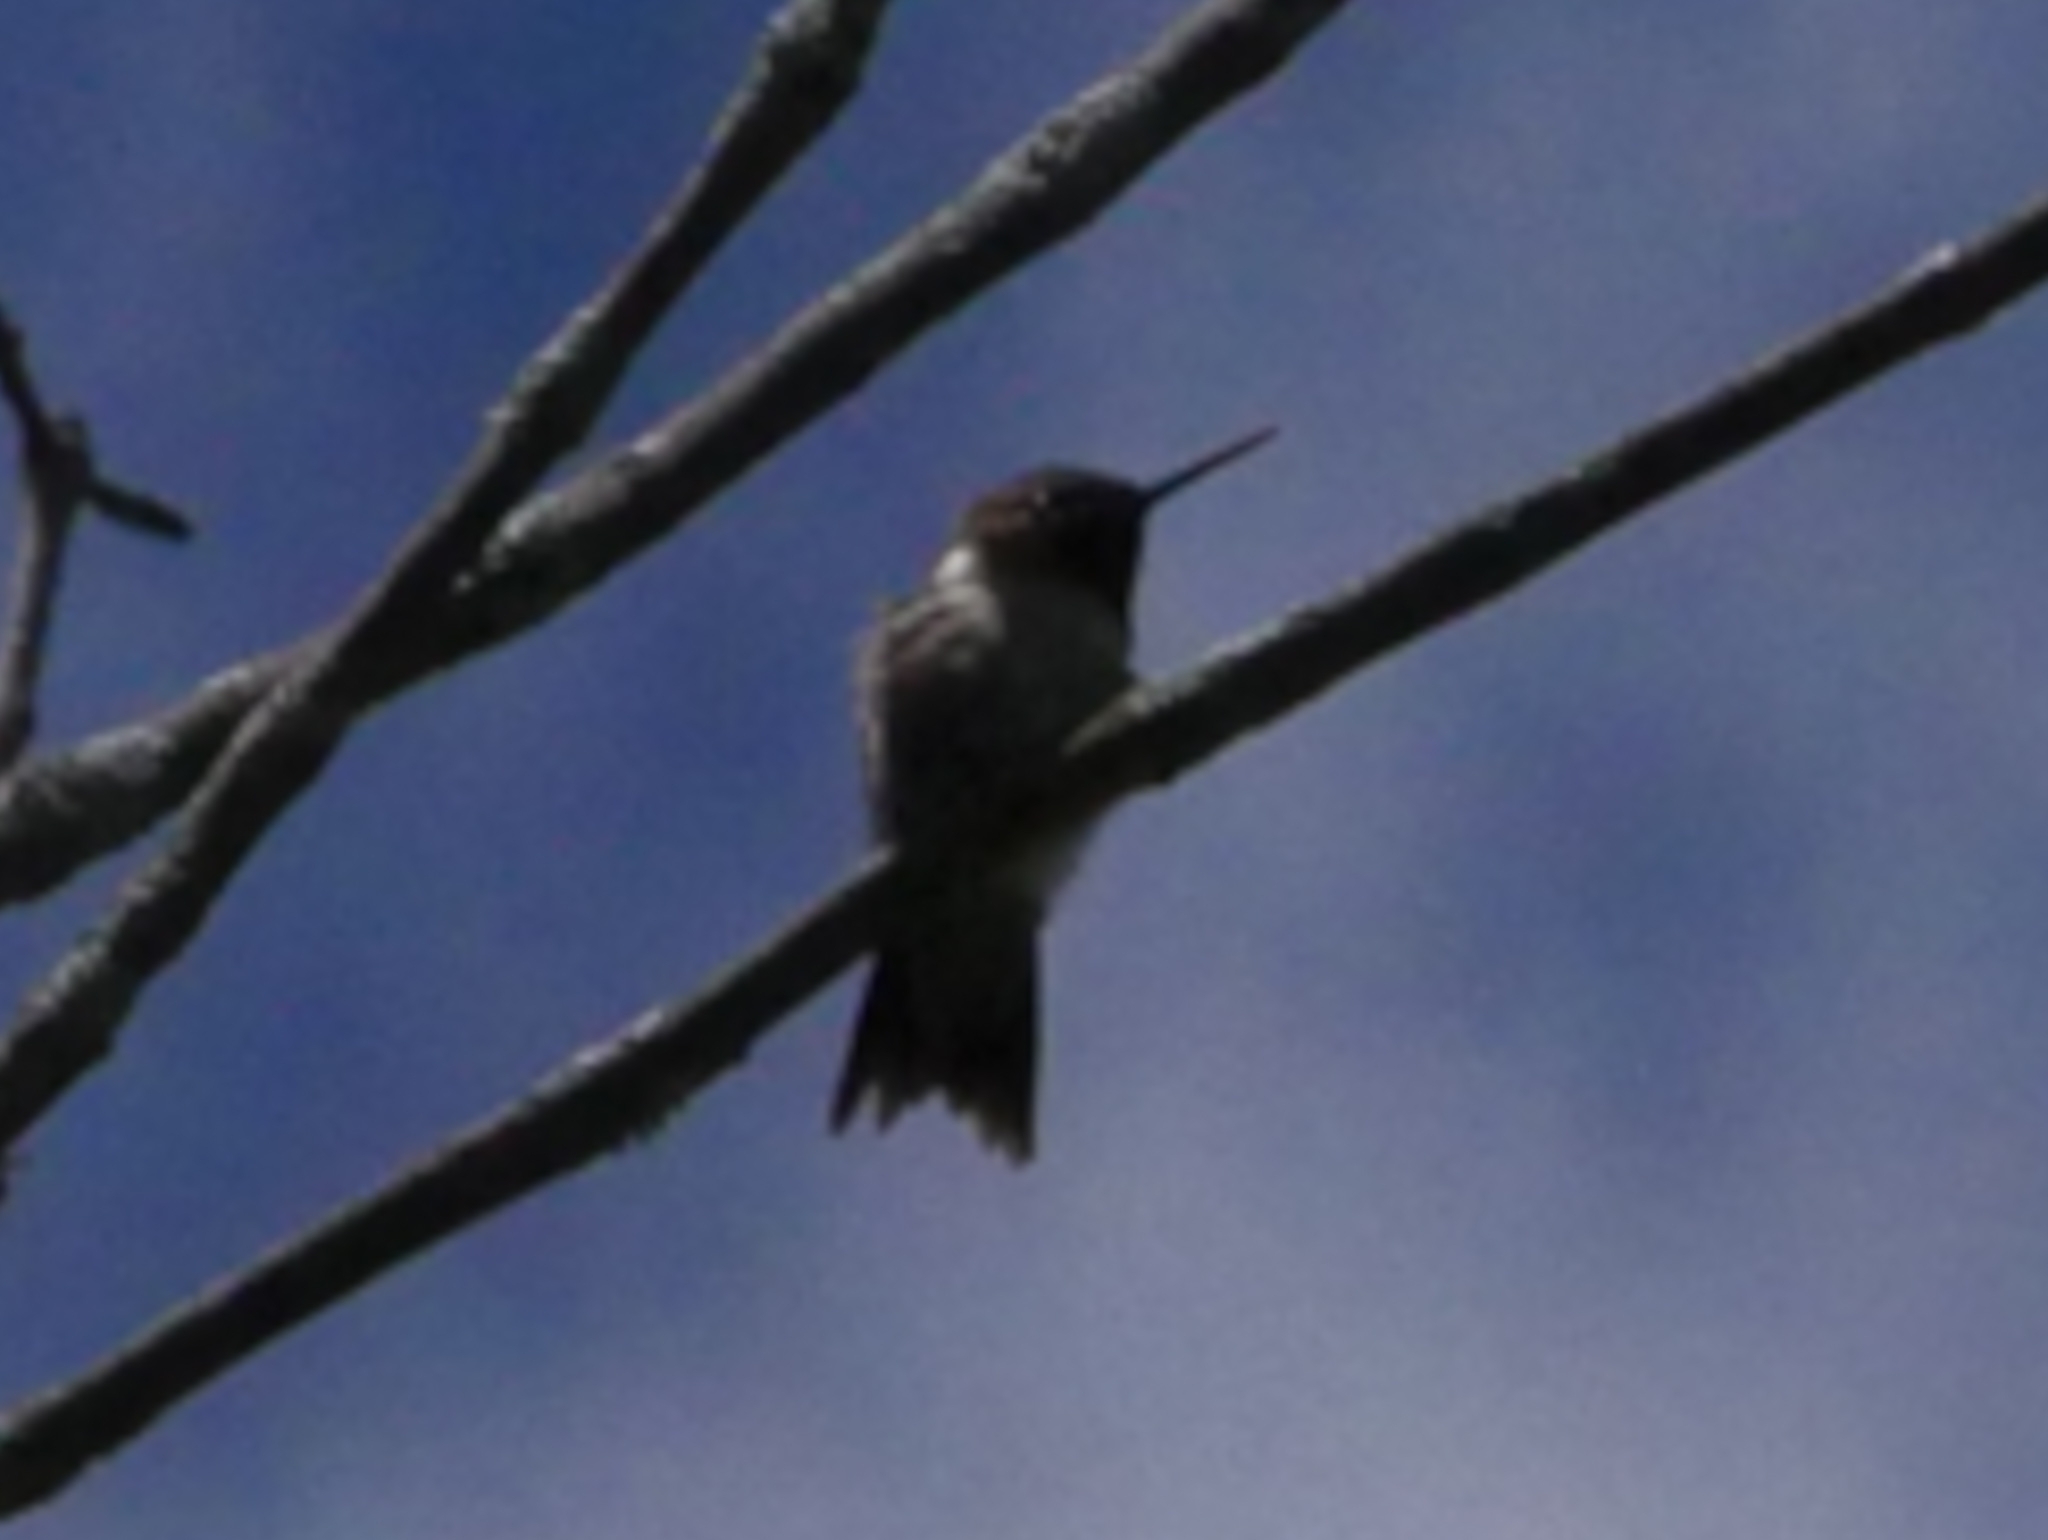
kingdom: Animalia
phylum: Chordata
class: Aves
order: Apodiformes
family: Trochilidae
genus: Archilochus
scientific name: Archilochus colubris
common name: Ruby-throated hummingbird
